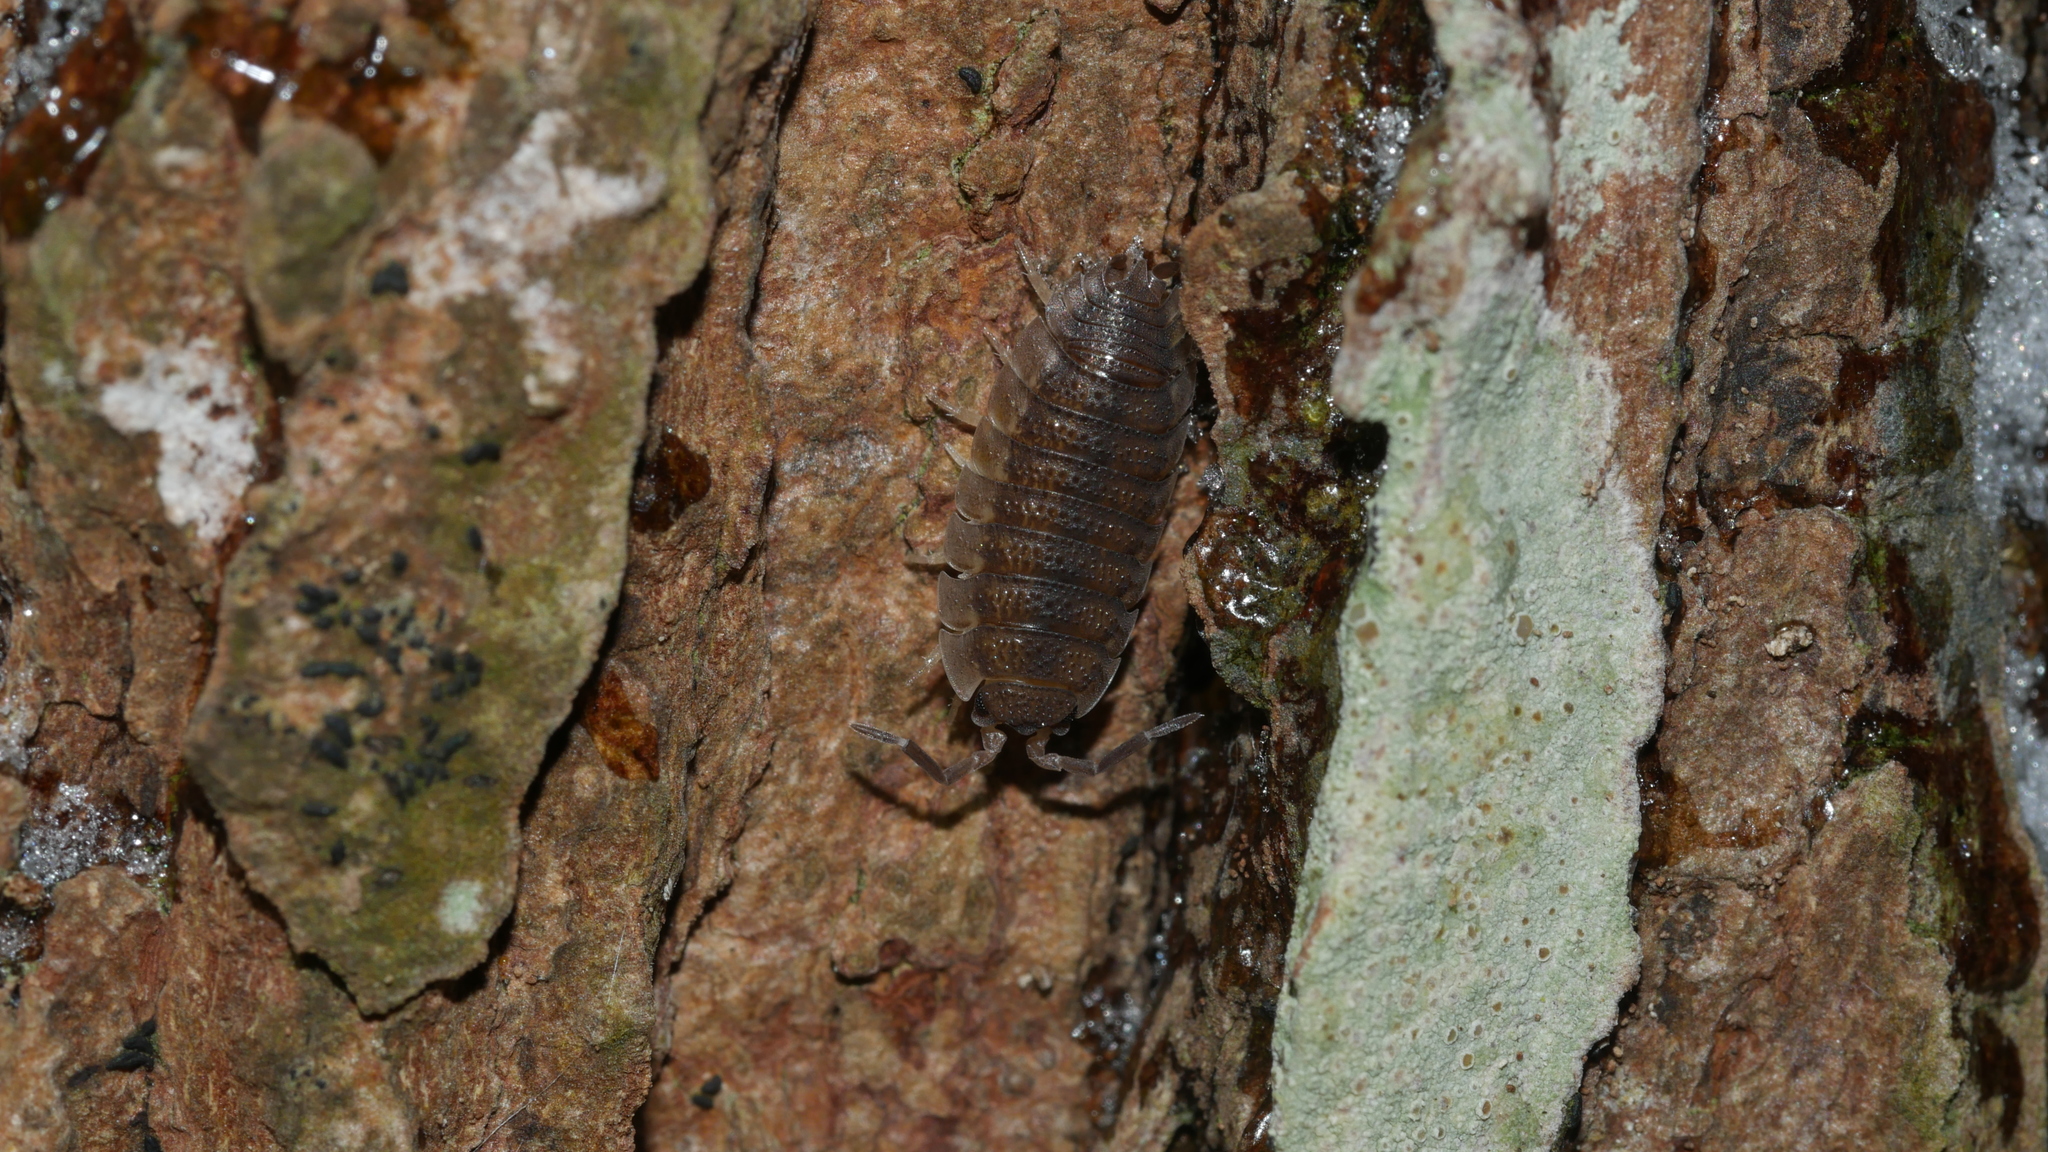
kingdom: Animalia
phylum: Arthropoda
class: Malacostraca
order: Isopoda
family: Porcellionidae
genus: Porcellio
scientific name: Porcellio scaber
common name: Common rough woodlouse
